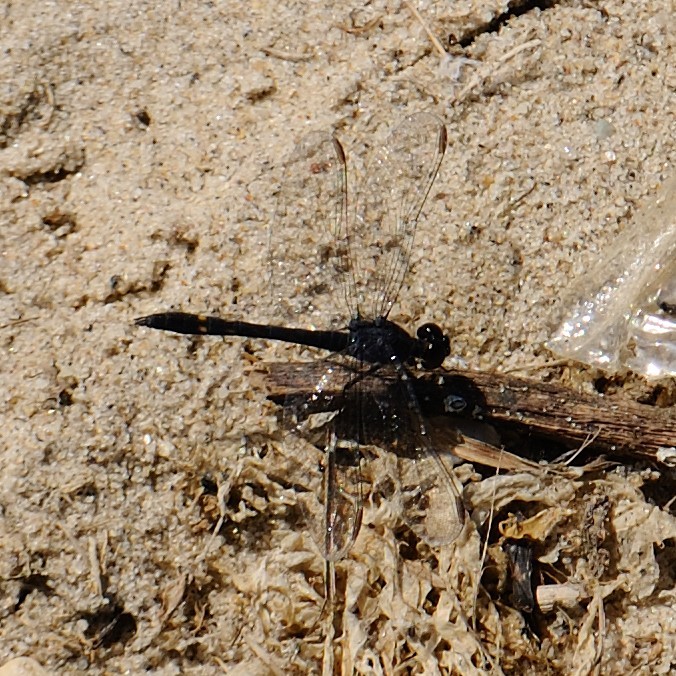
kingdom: Animalia
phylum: Arthropoda
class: Insecta
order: Odonata
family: Libellulidae
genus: Erythrodiplax
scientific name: Erythrodiplax berenice
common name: Seaside dragonlet
